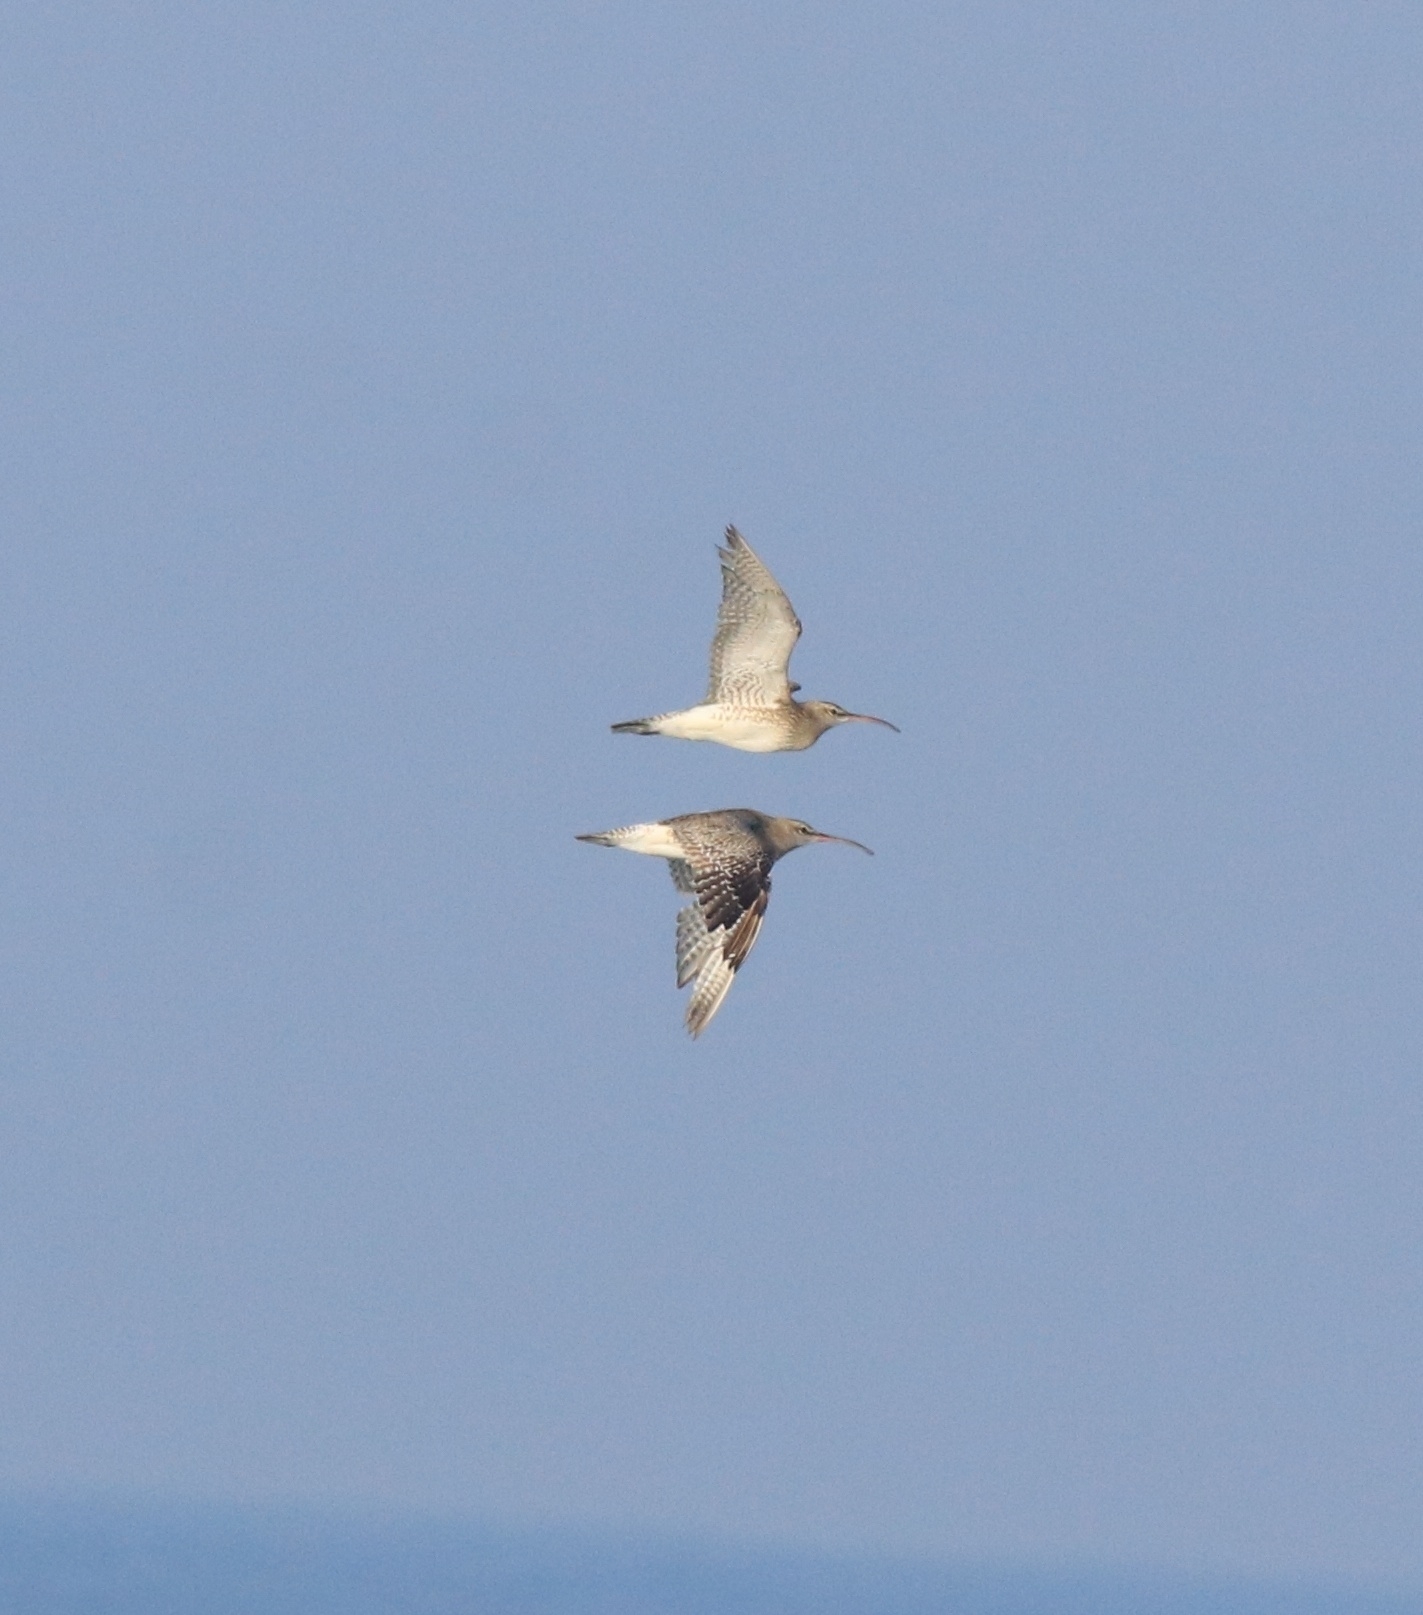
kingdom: Animalia
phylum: Chordata
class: Aves
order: Charadriiformes
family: Scolopacidae
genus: Numenius
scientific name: Numenius phaeopus
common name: Whimbrel
